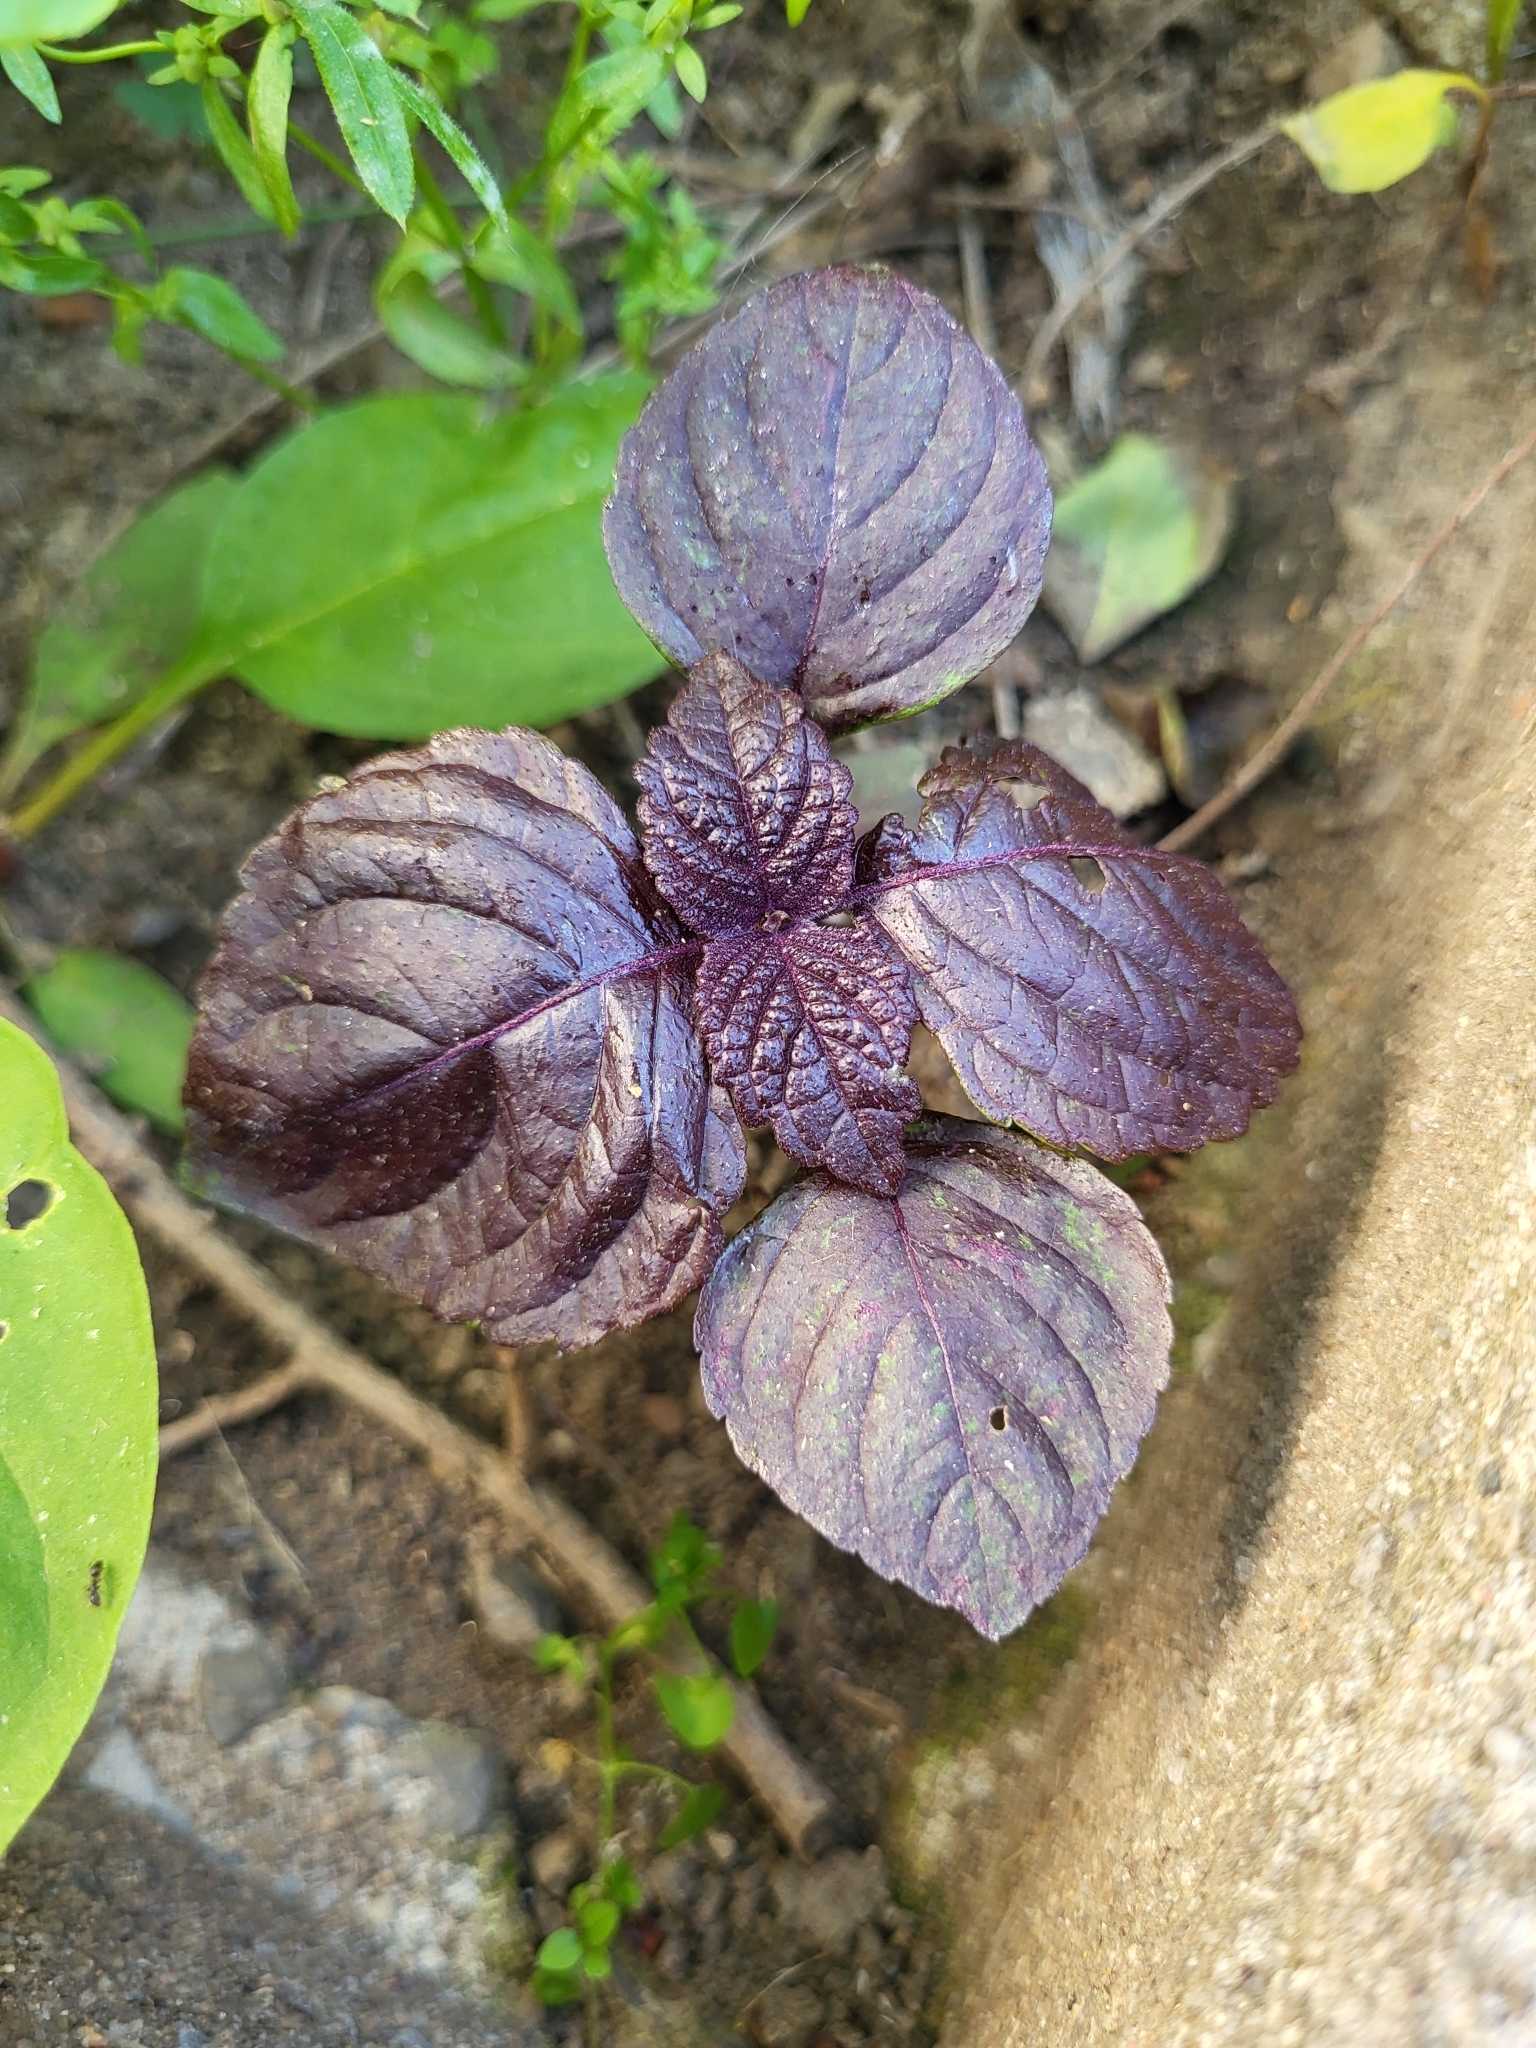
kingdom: Plantae
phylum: Tracheophyta
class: Magnoliopsida
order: Lamiales
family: Lamiaceae
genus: Perilla
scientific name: Perilla frutescens
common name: Perilla
